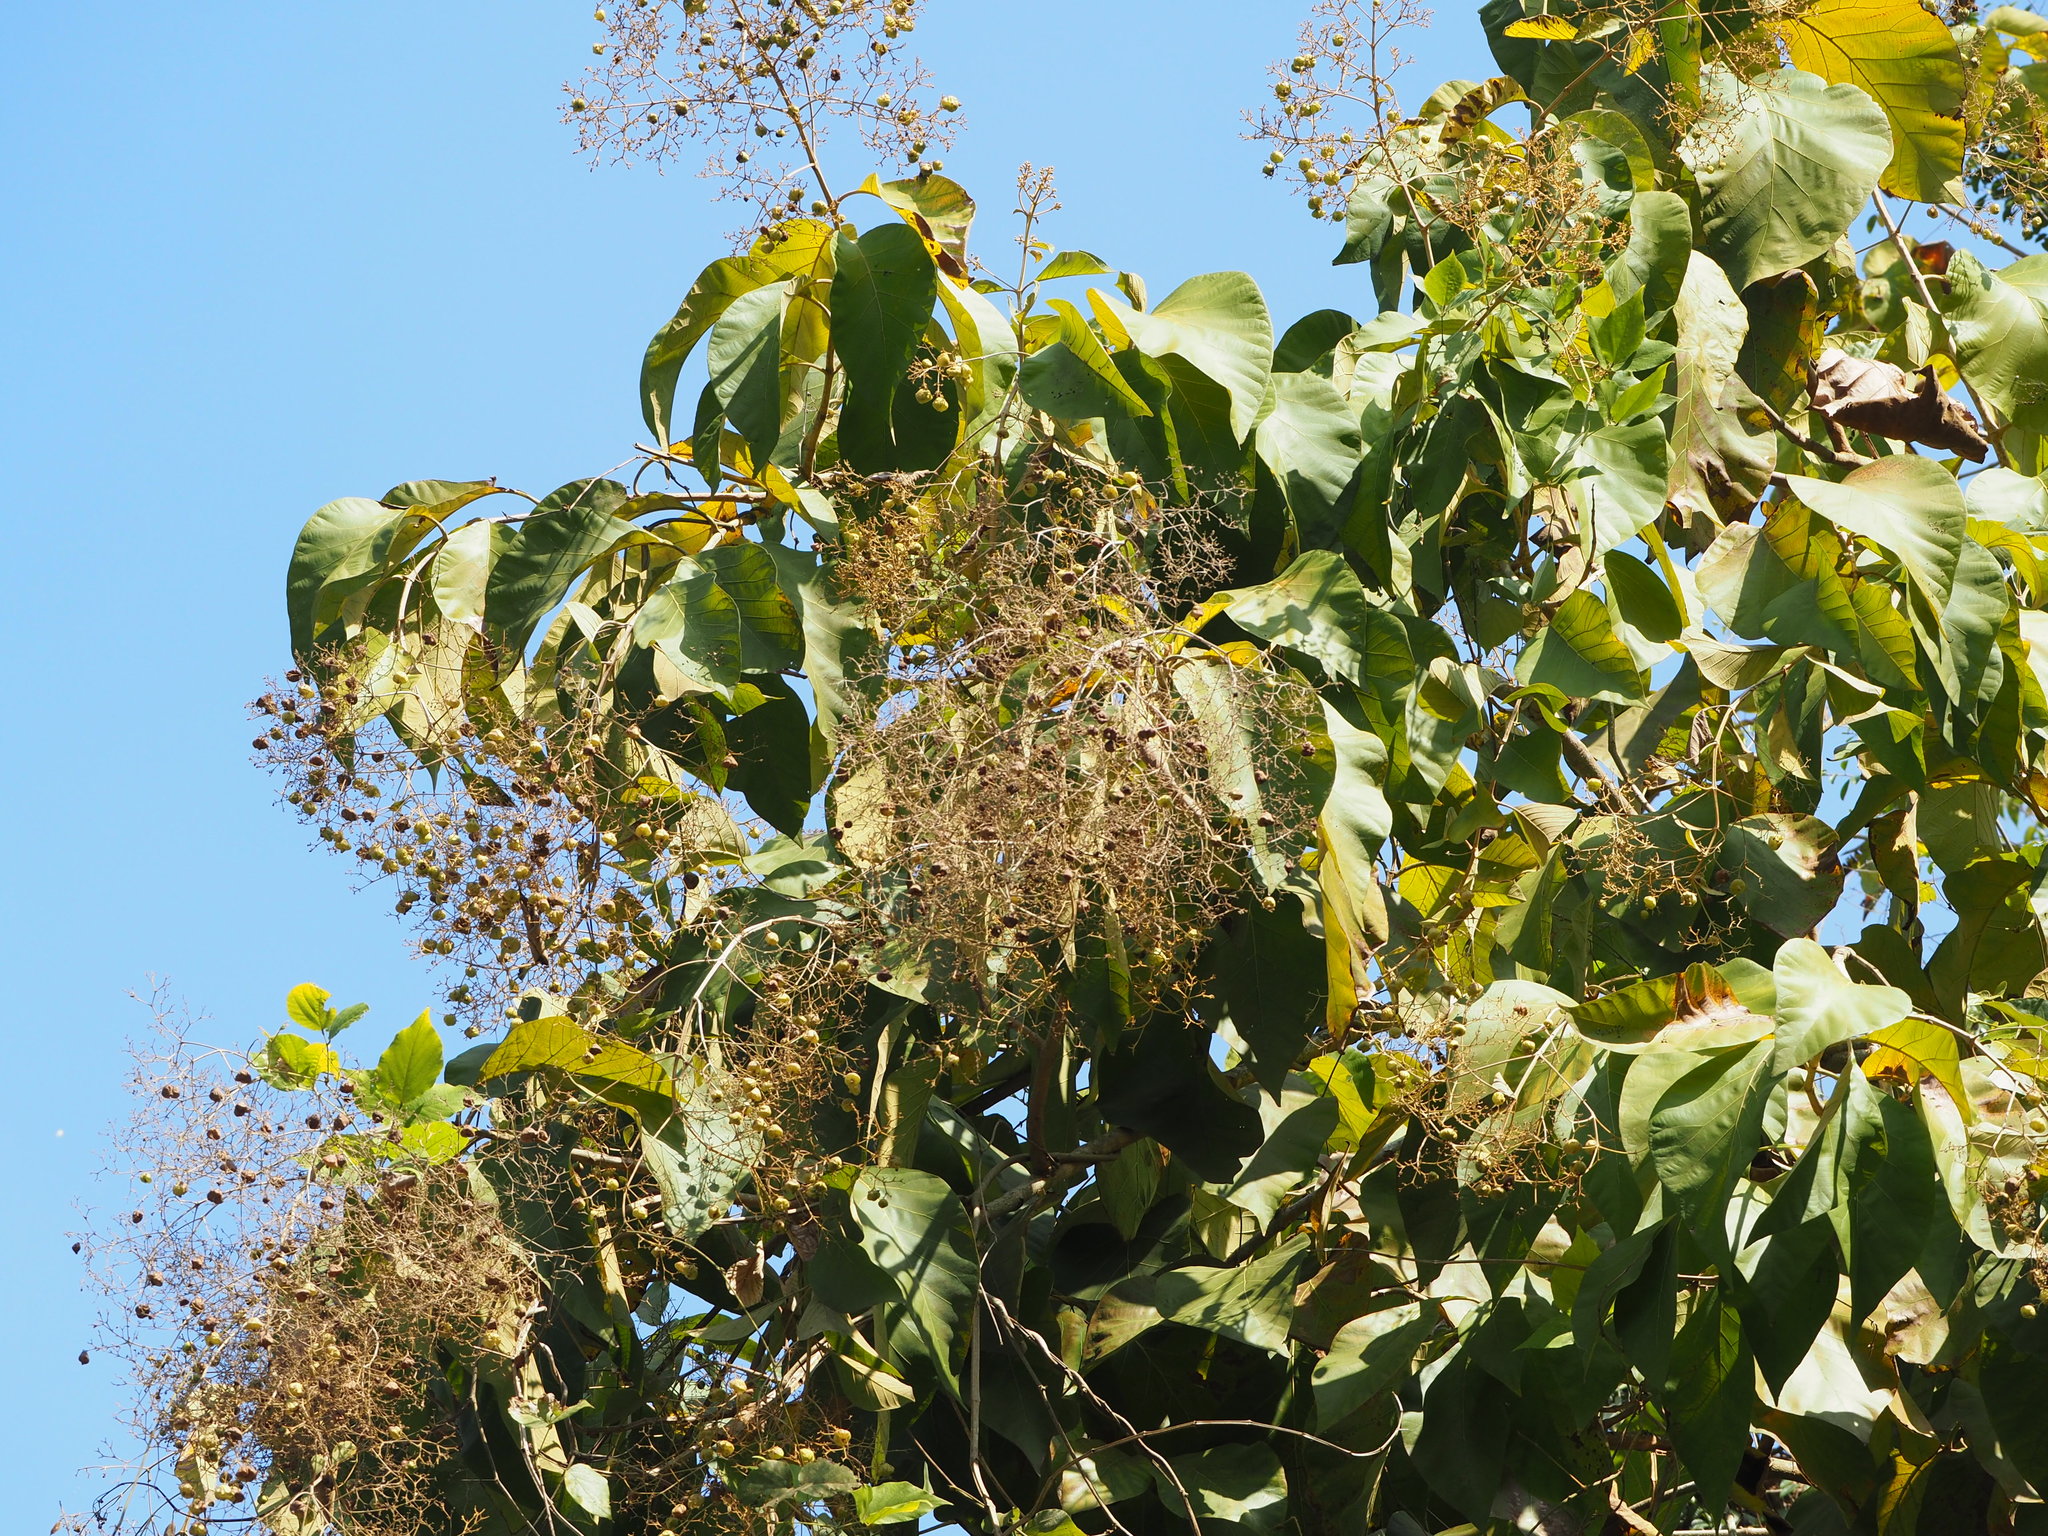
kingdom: Plantae
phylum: Tracheophyta
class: Magnoliopsida
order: Lamiales
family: Lamiaceae
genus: Tectona
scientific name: Tectona grandis
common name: Teak
